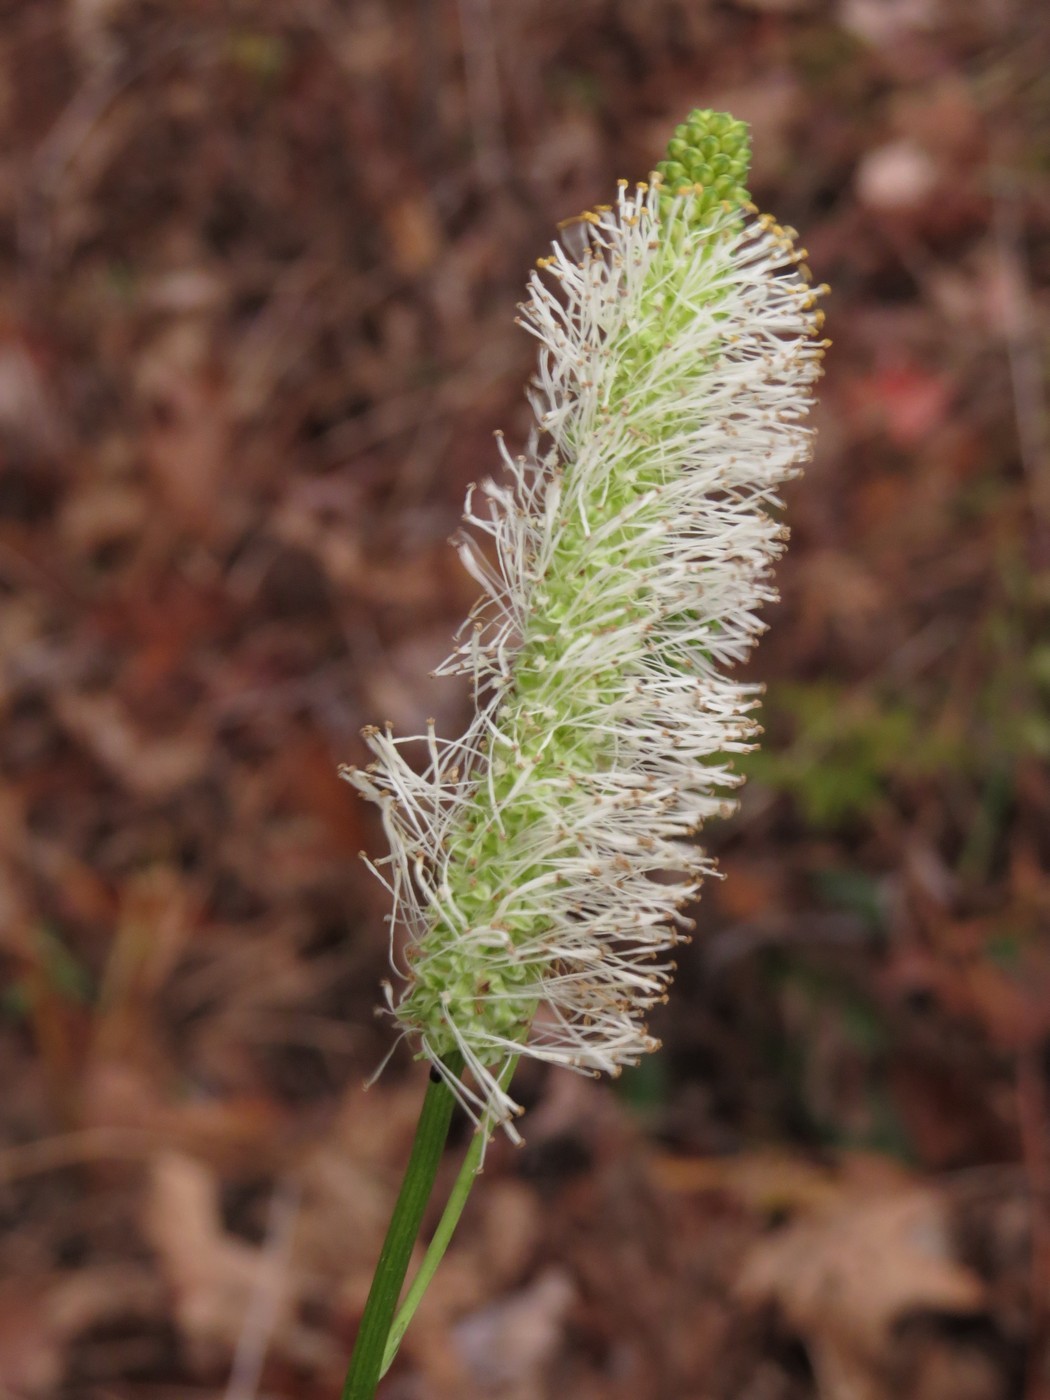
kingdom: Plantae
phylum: Tracheophyta
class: Magnoliopsida
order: Rosales
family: Rosaceae
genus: Sanguisorba
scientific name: Sanguisorba canadensis
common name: White burnet
